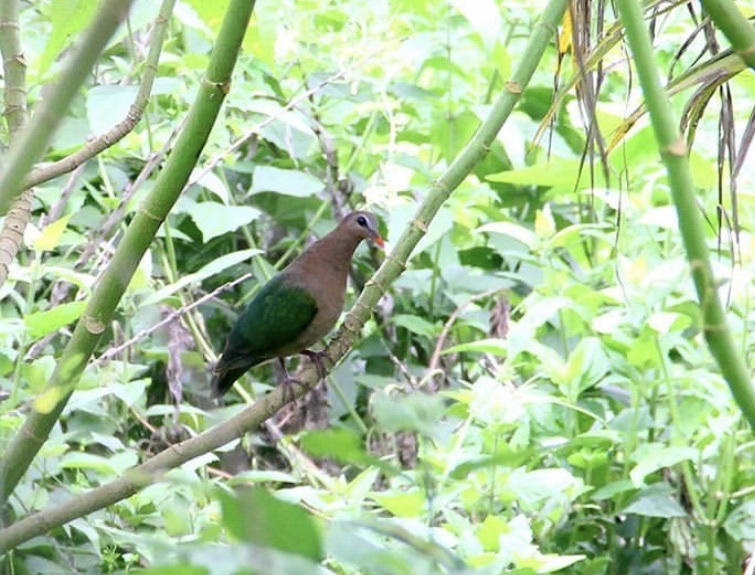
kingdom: Animalia
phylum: Chordata
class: Aves
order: Columbiformes
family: Columbidae
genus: Chalcophaps
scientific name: Chalcophaps indica
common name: Common emerald dove
